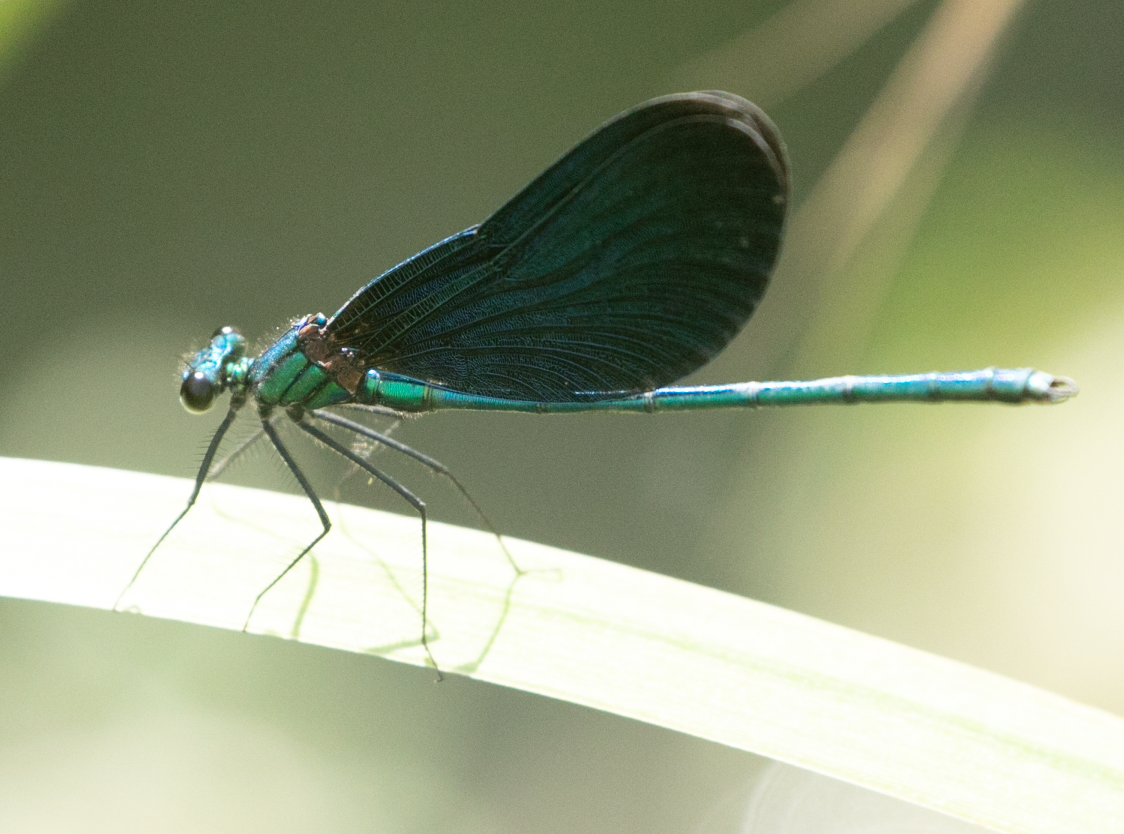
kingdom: Animalia
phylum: Arthropoda
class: Insecta
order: Odonata
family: Calopterygidae
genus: Calopteryx
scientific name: Calopteryx virgo
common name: Beautiful demoiselle
